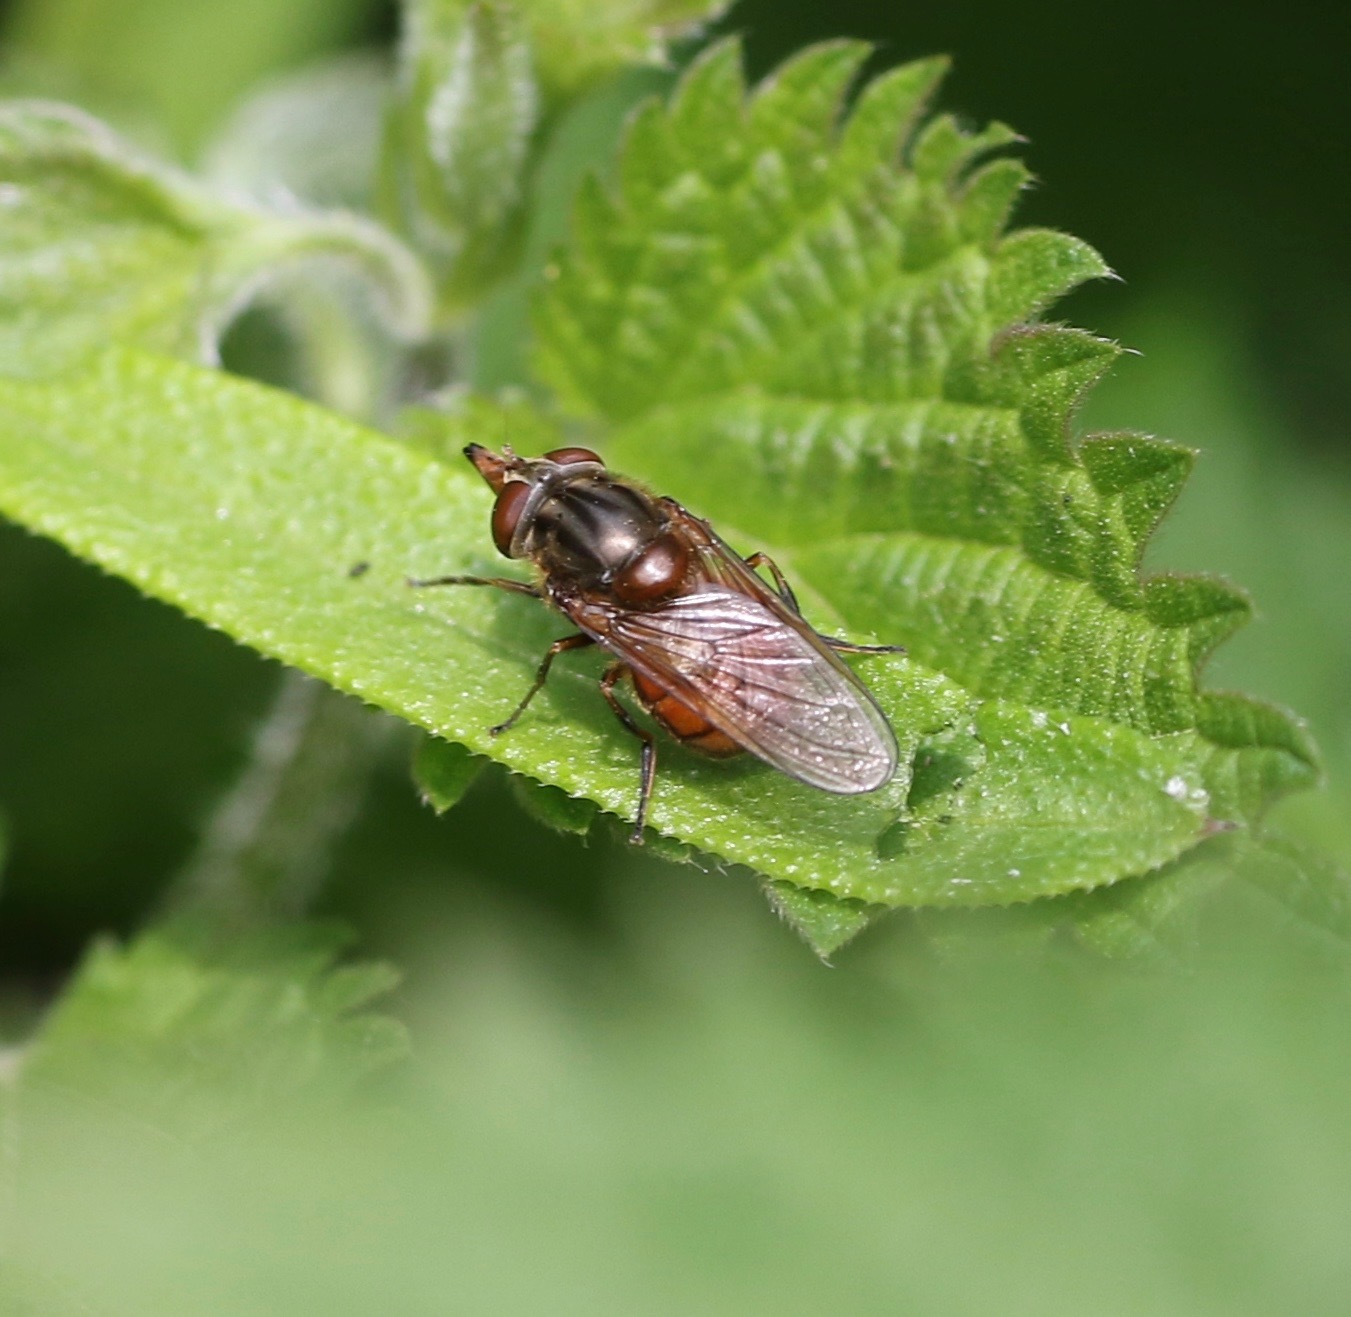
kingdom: Animalia
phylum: Arthropoda
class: Insecta
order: Diptera
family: Syrphidae
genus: Rhingia
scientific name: Rhingia campestris
